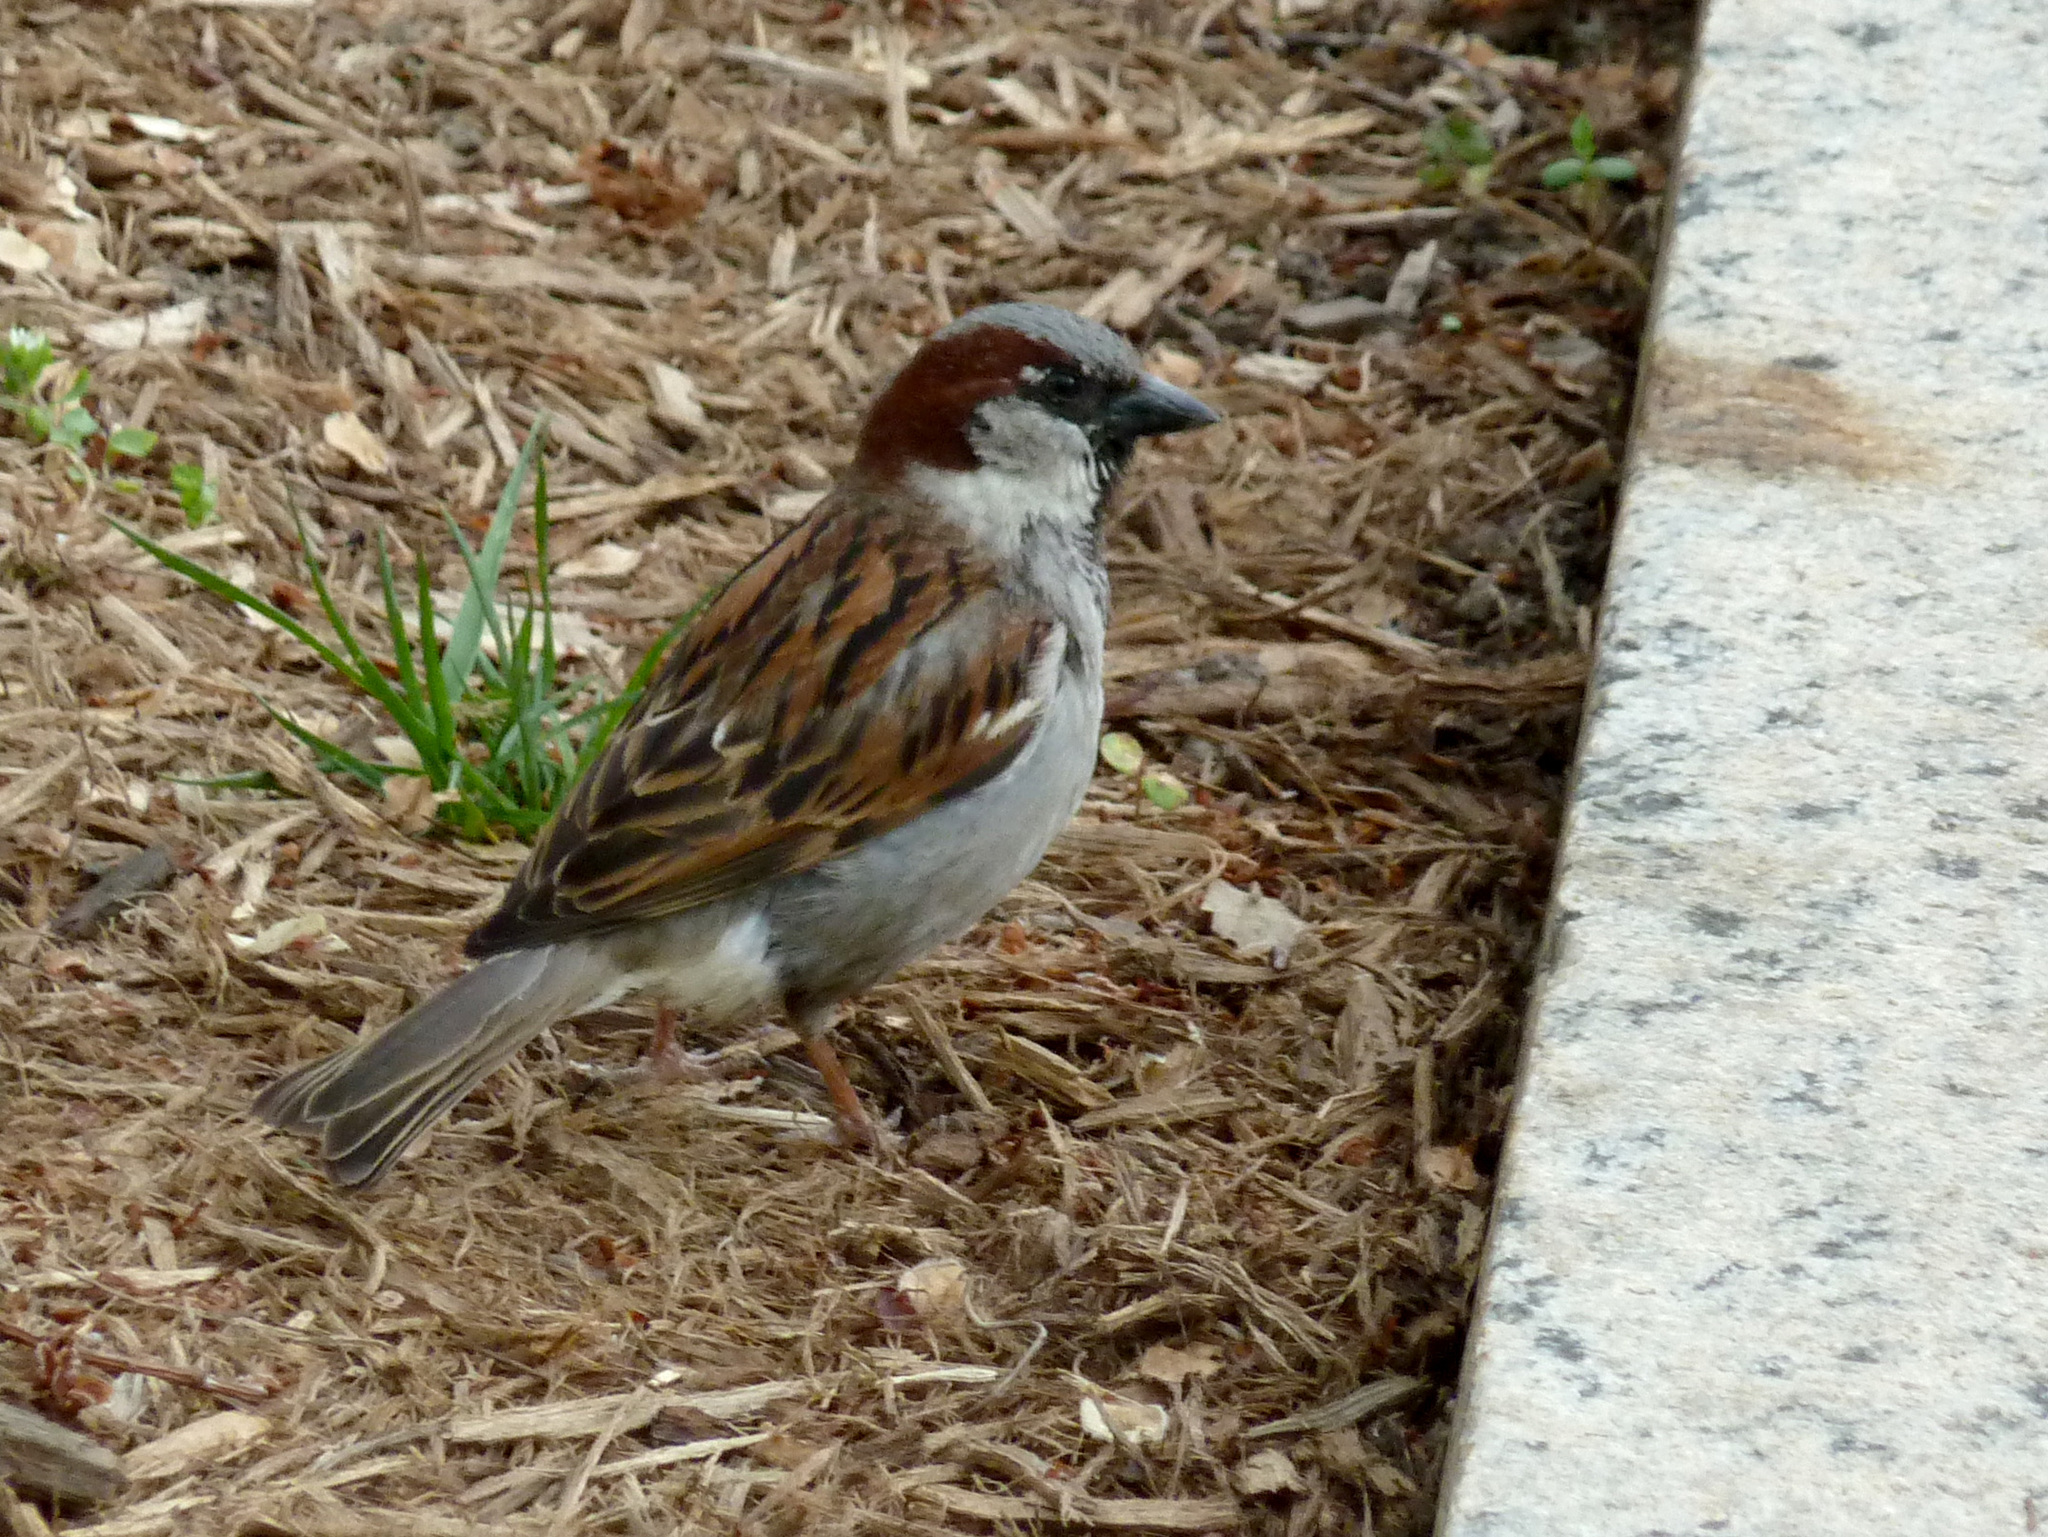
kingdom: Animalia
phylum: Chordata
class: Aves
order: Passeriformes
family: Passeridae
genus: Passer
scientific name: Passer domesticus
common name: House sparrow
